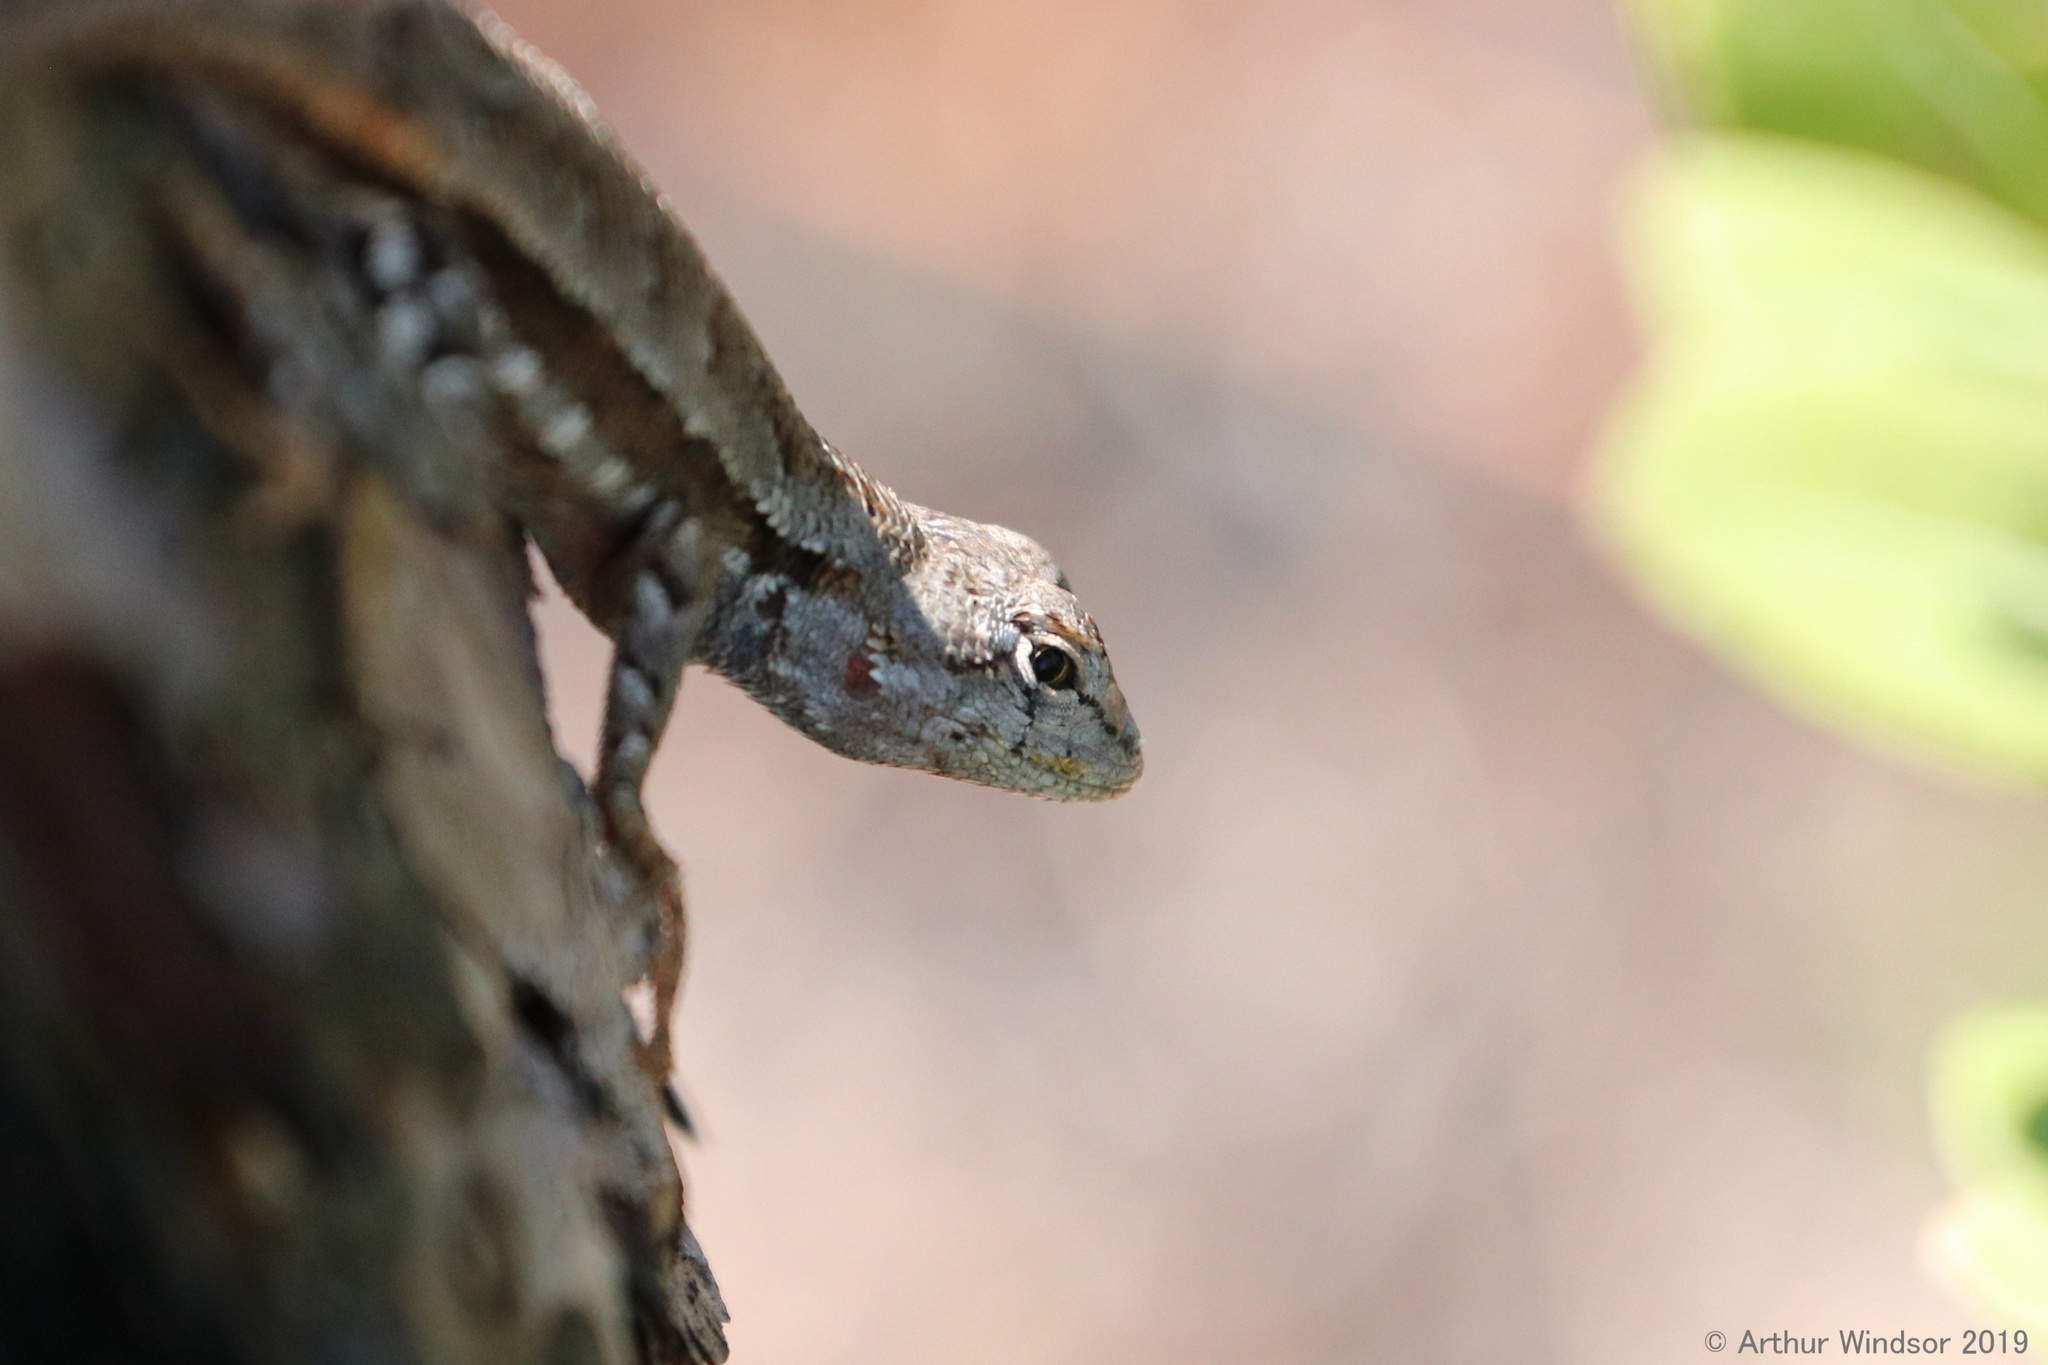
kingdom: Animalia
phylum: Chordata
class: Squamata
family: Phrynosomatidae
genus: Sceloporus
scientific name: Sceloporus woodi
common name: Florida scrub lizard
